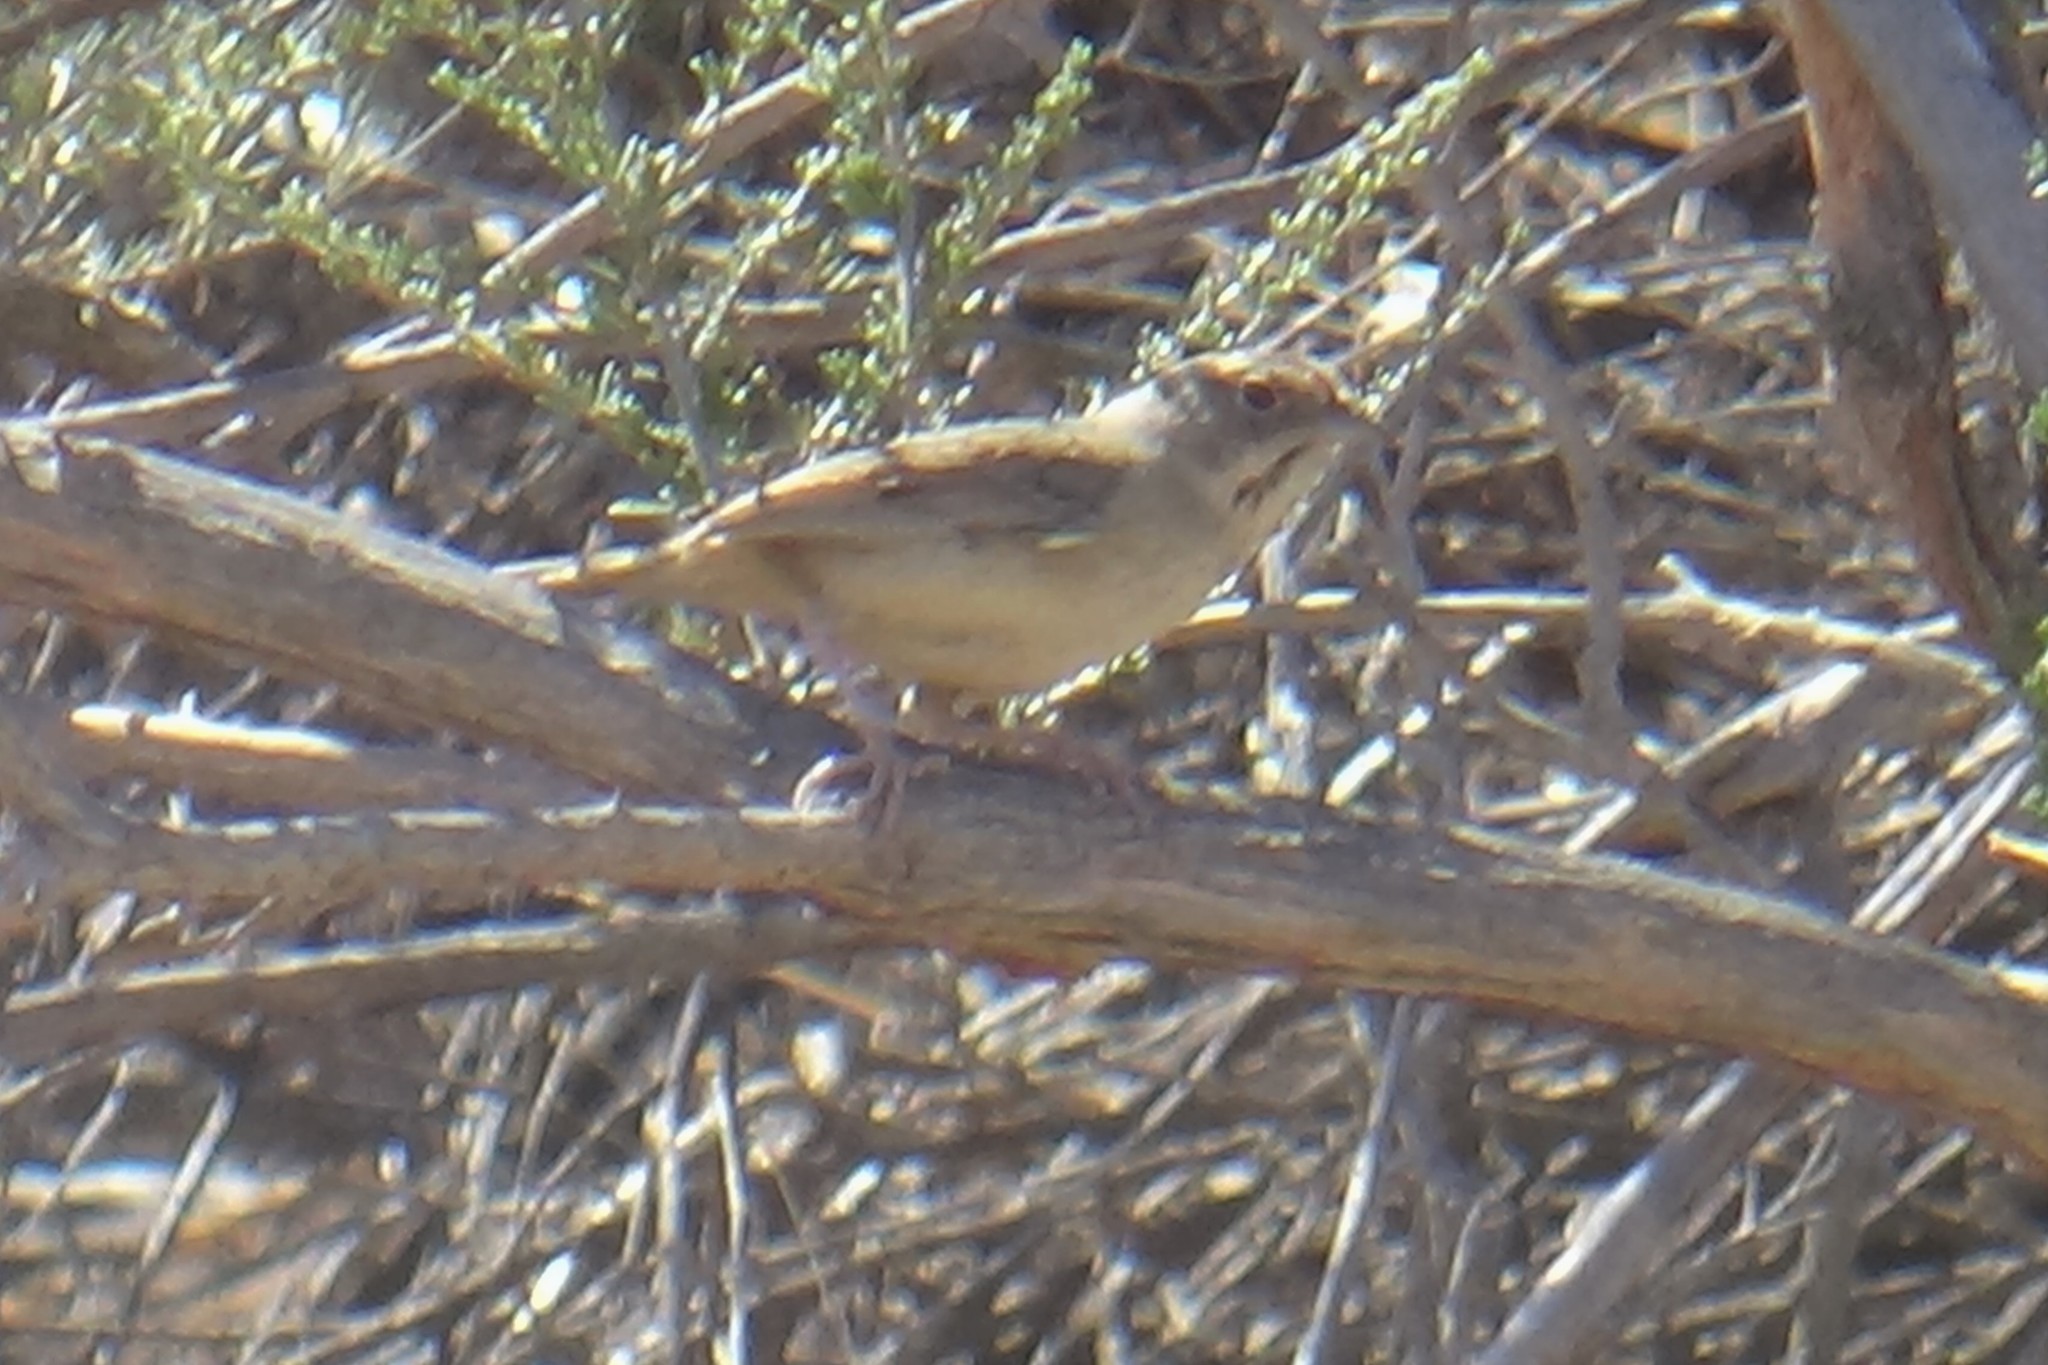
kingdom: Animalia
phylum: Chordata
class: Aves
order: Passeriformes
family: Passerellidae
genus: Aimophila
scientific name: Aimophila ruficeps
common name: Rufous-crowned sparrow
